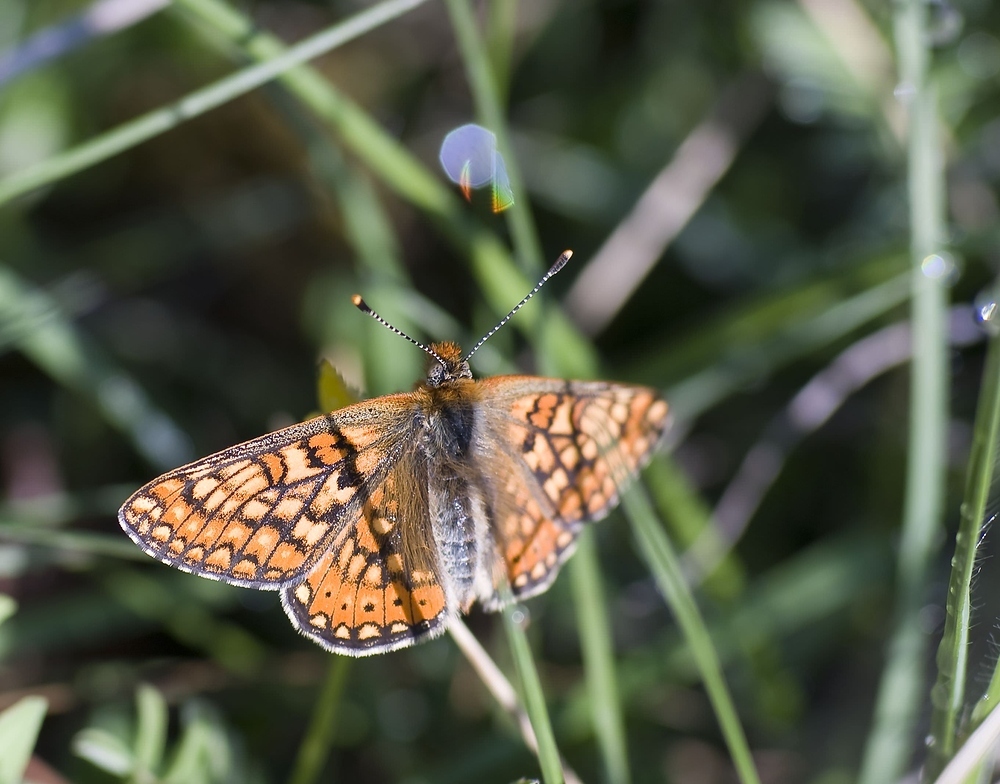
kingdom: Animalia
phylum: Arthropoda
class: Insecta
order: Lepidoptera
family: Nymphalidae
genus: Euphydryas
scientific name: Euphydryas aurinia
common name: Marsh fritillary
